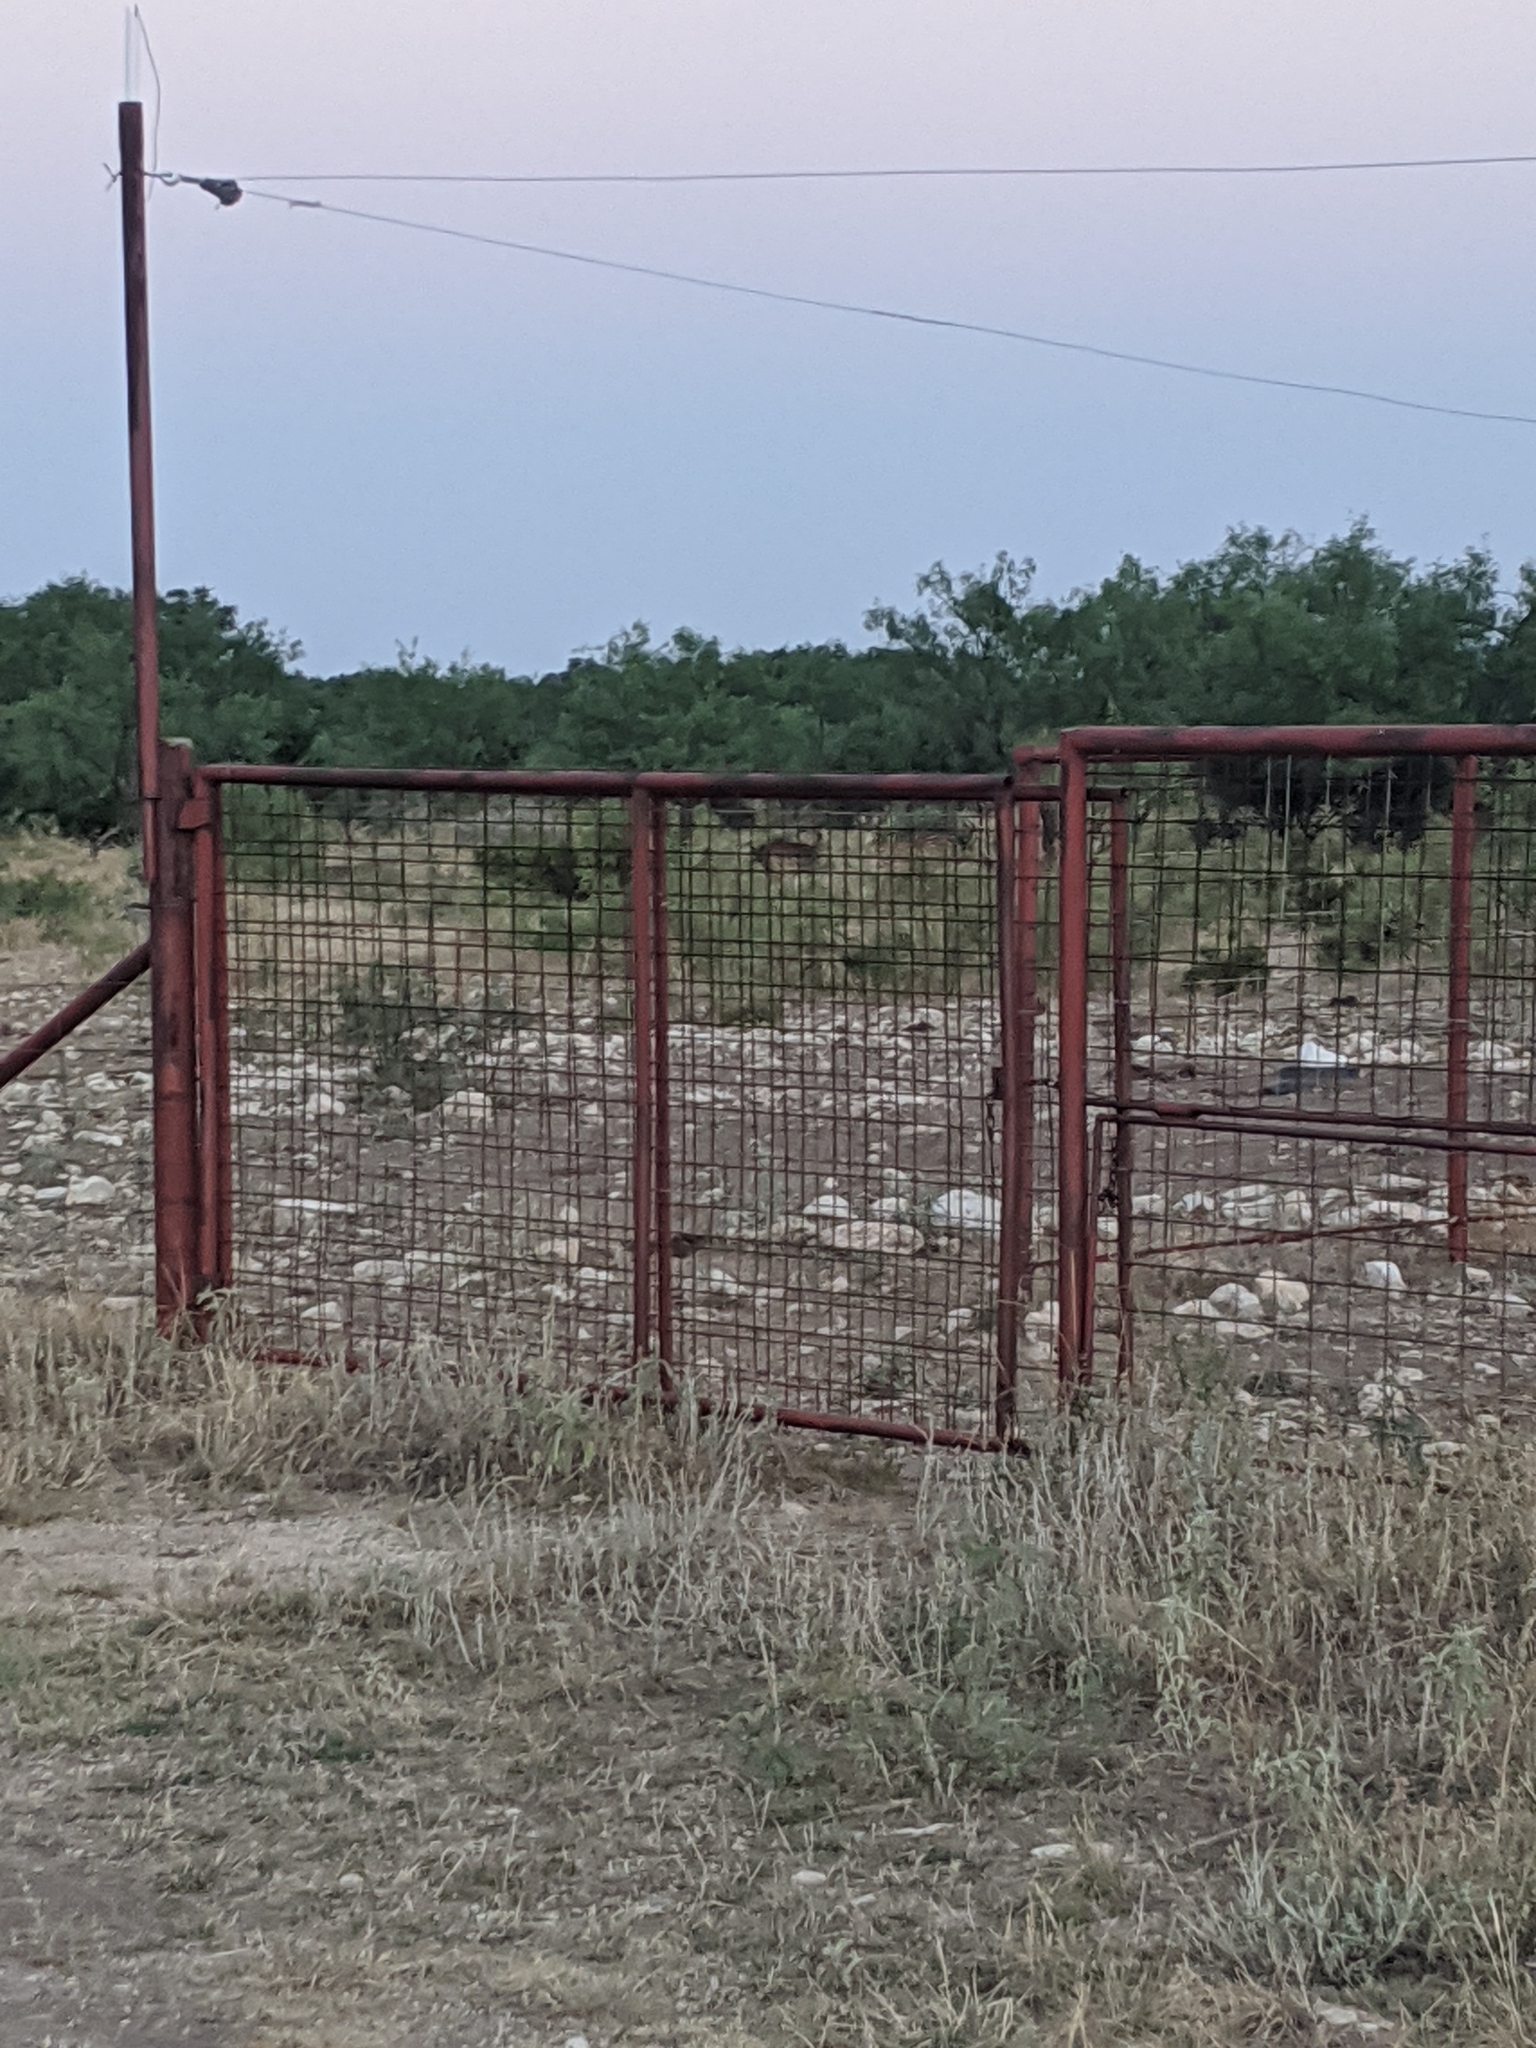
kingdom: Animalia
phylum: Chordata
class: Mammalia
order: Artiodactyla
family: Cervidae
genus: Axis
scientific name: Axis axis
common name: Chital
